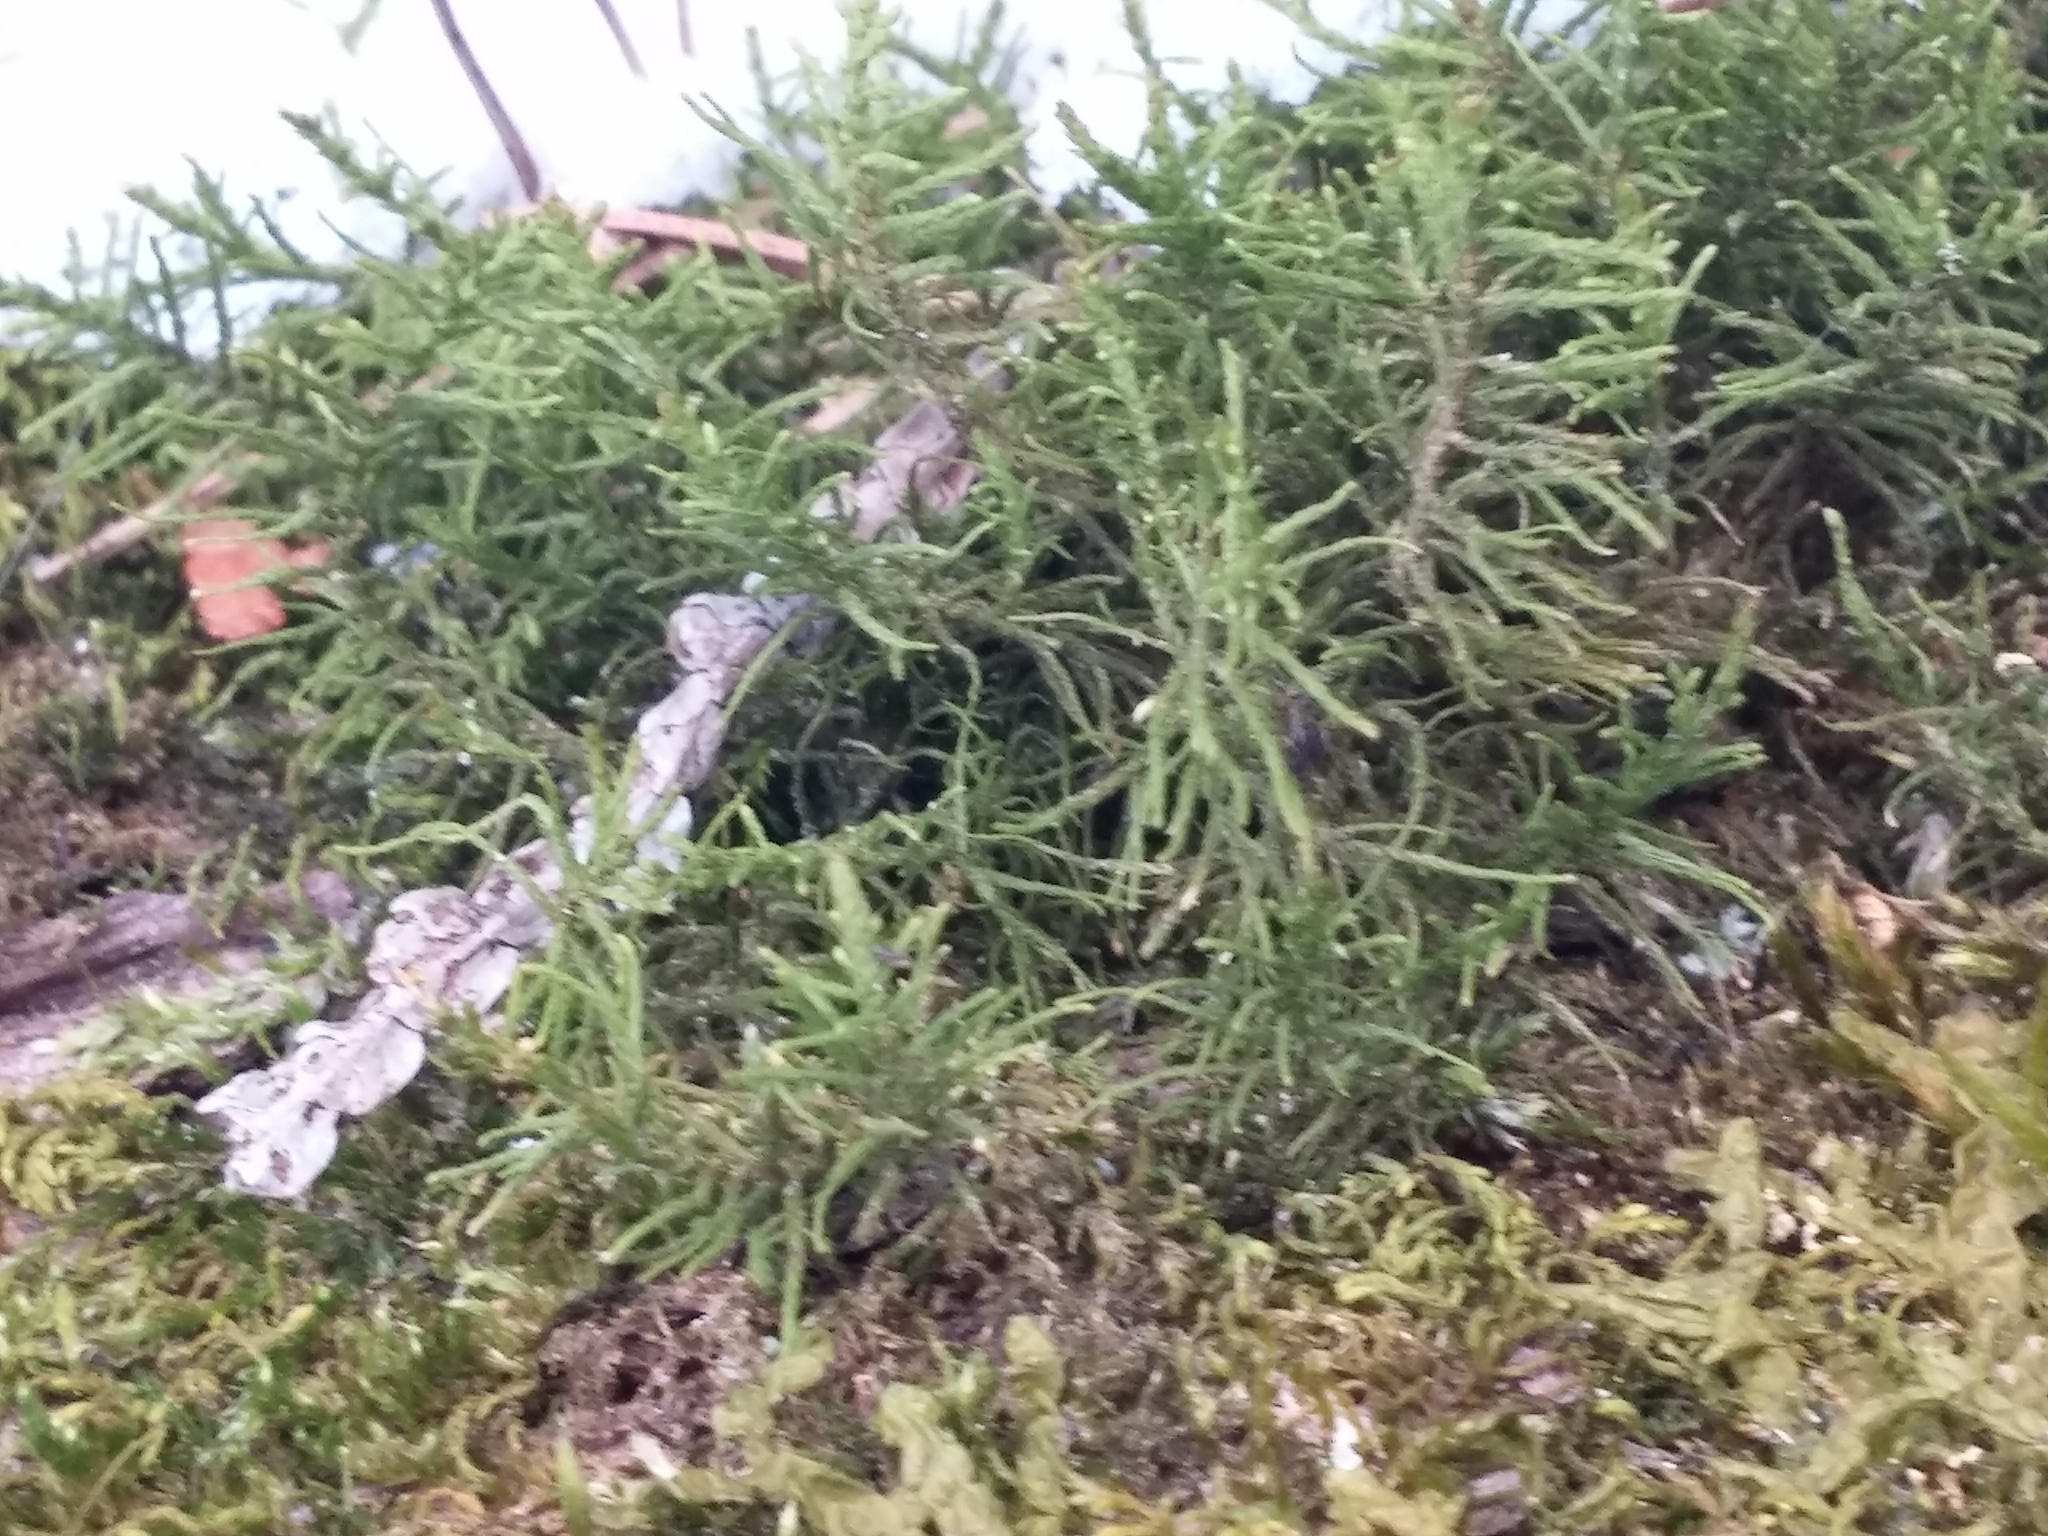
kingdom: Plantae
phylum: Bryophyta
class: Bryopsida
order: Hypnales
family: Thuidiaceae
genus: Abietinella
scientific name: Abietinella abietina
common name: Wiry fern moss
